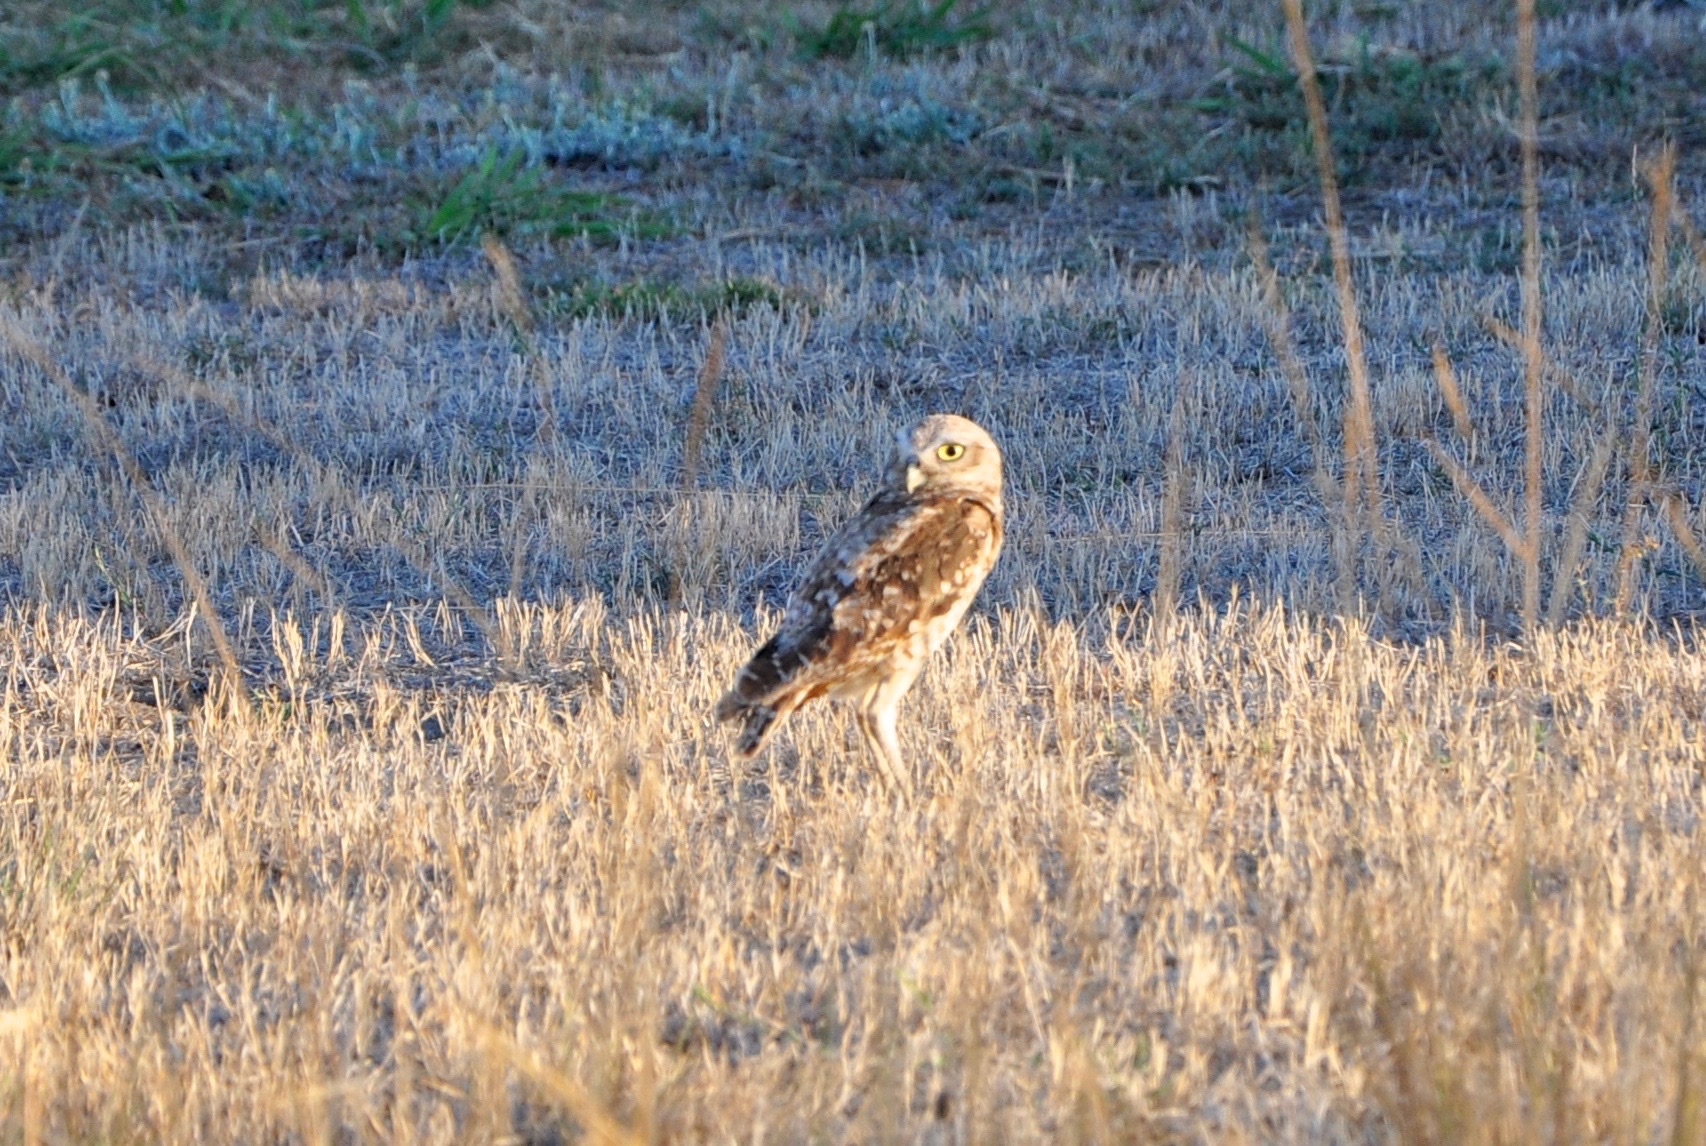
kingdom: Animalia
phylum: Chordata
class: Aves
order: Strigiformes
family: Strigidae
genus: Athene
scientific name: Athene cunicularia
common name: Burrowing owl
